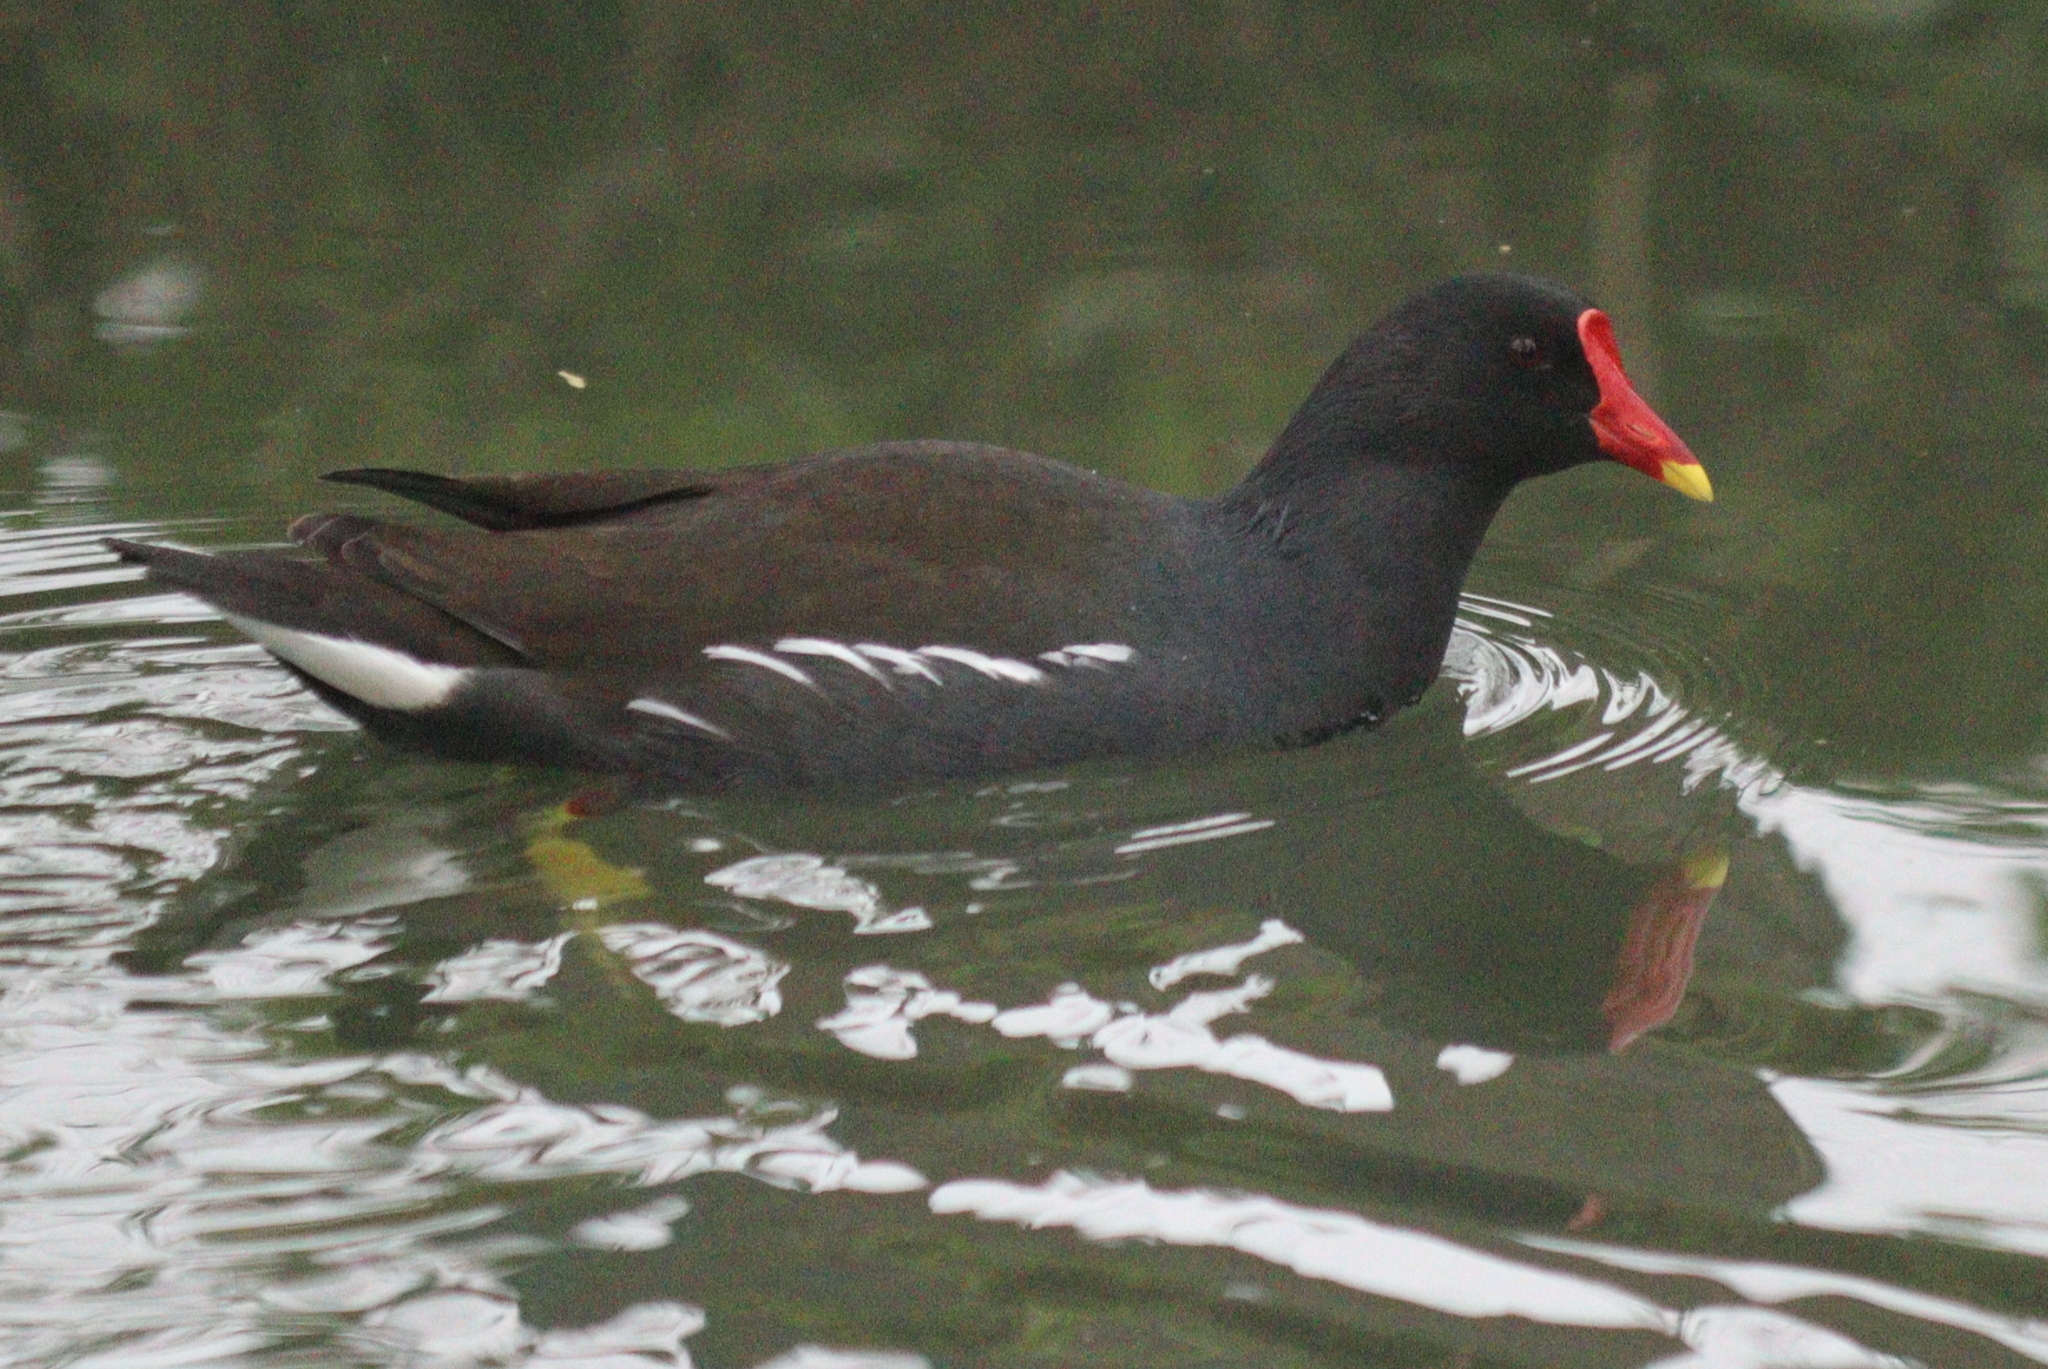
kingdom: Animalia
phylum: Chordata
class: Aves
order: Gruiformes
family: Rallidae
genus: Gallinula
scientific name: Gallinula chloropus
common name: Common moorhen
